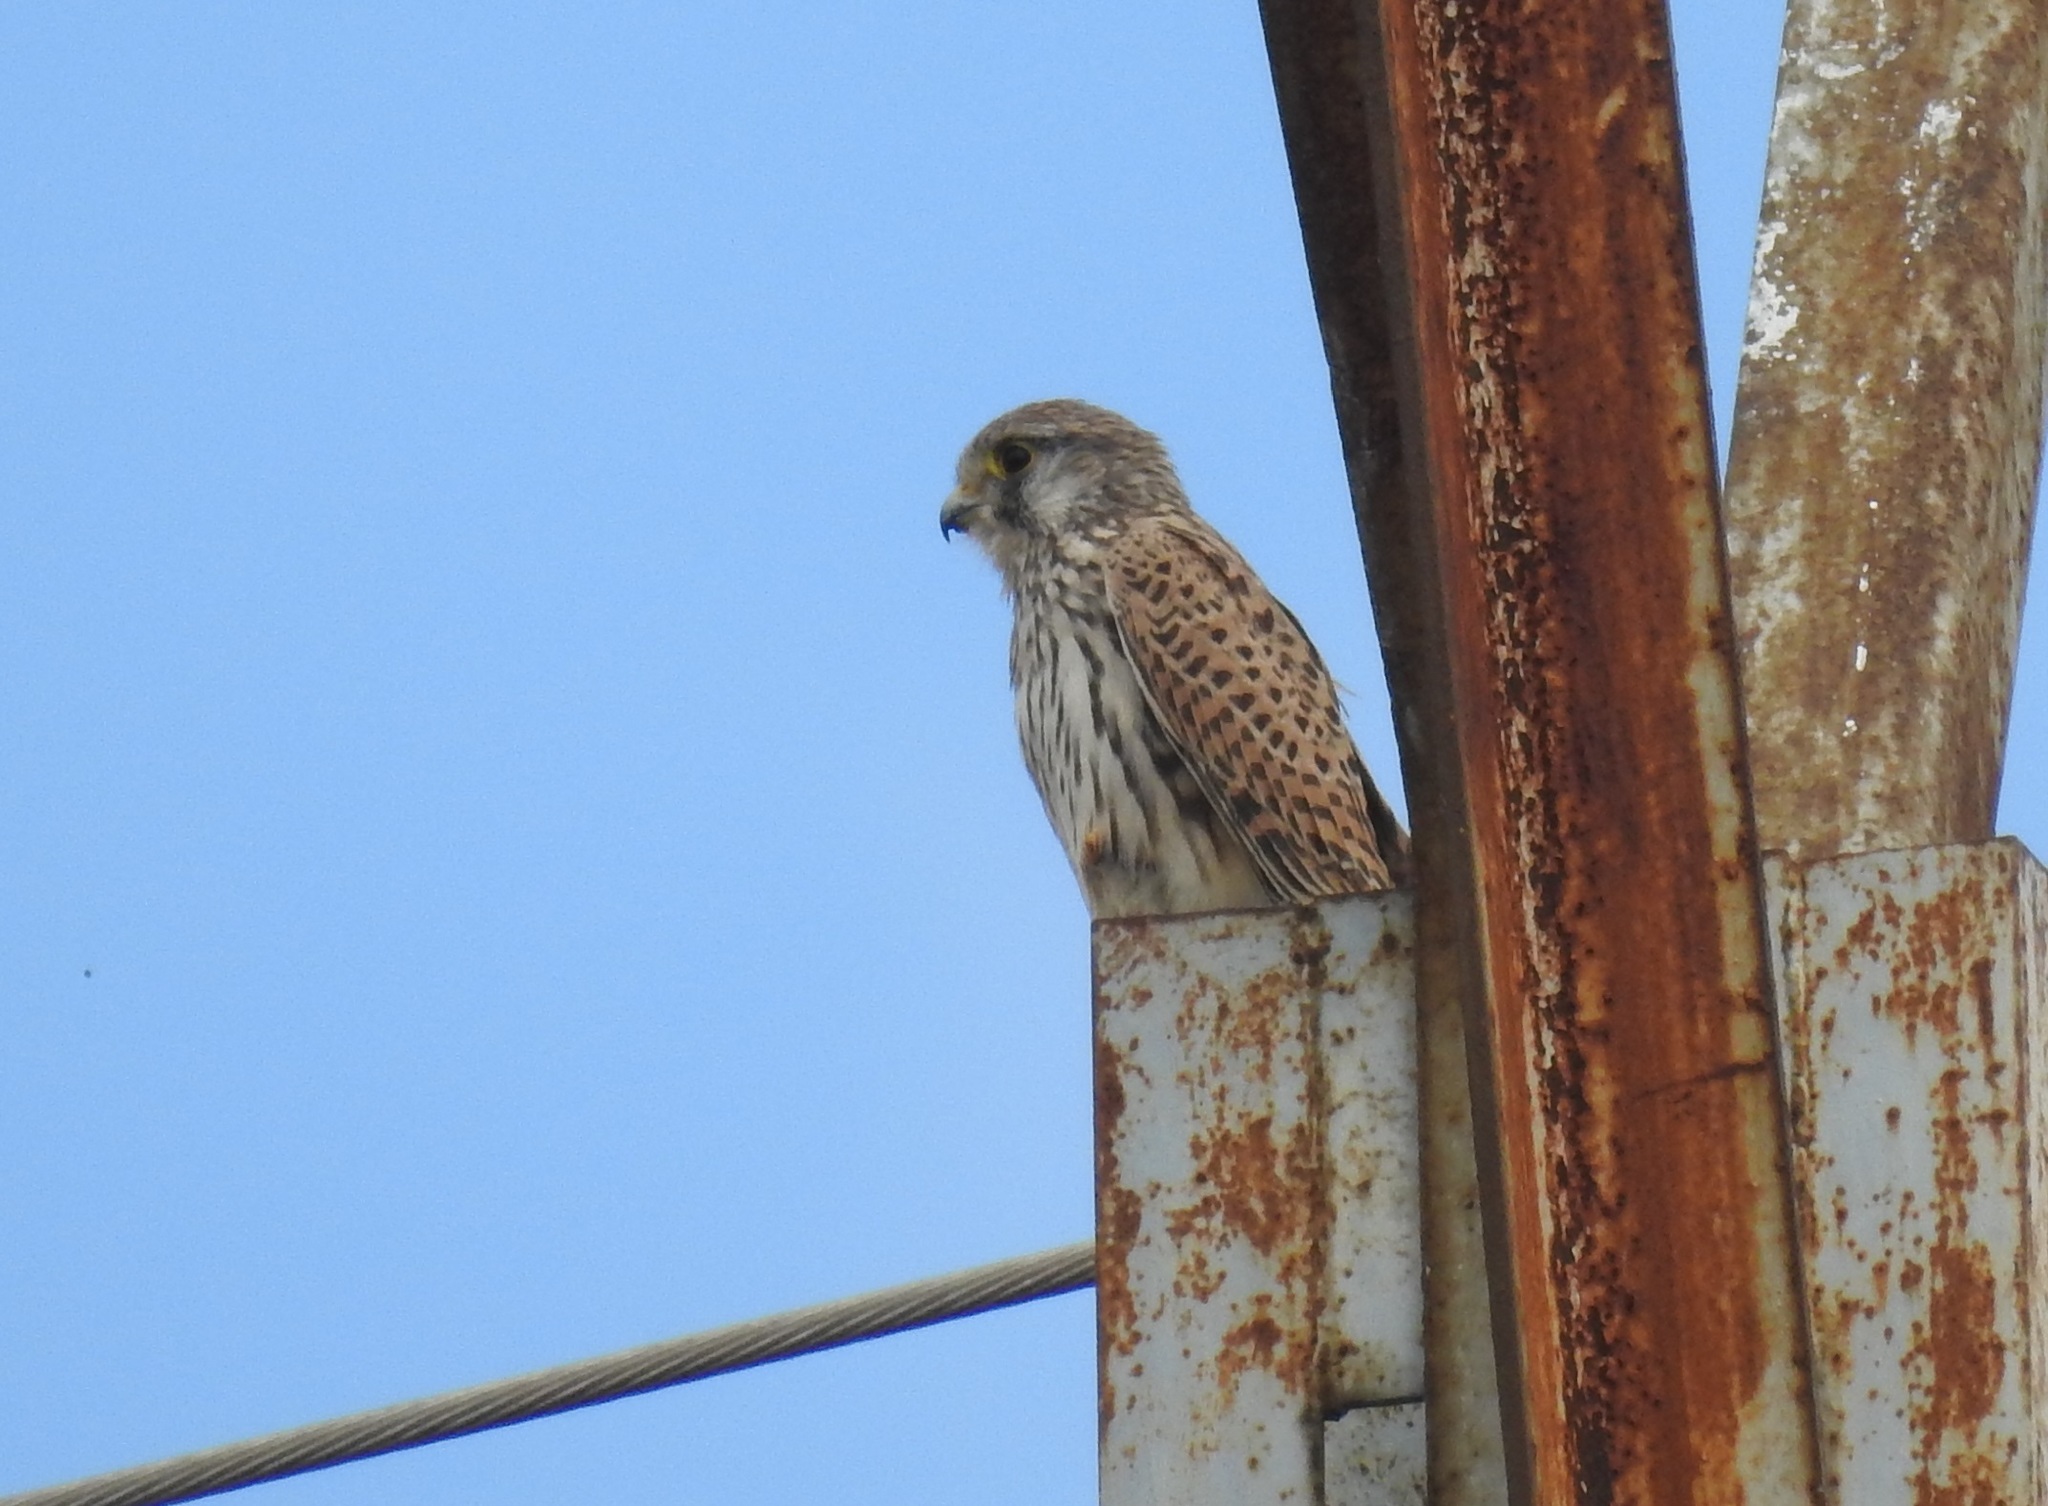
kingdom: Animalia
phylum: Chordata
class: Aves
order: Falconiformes
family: Falconidae
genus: Falco
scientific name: Falco tinnunculus
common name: Common kestrel
